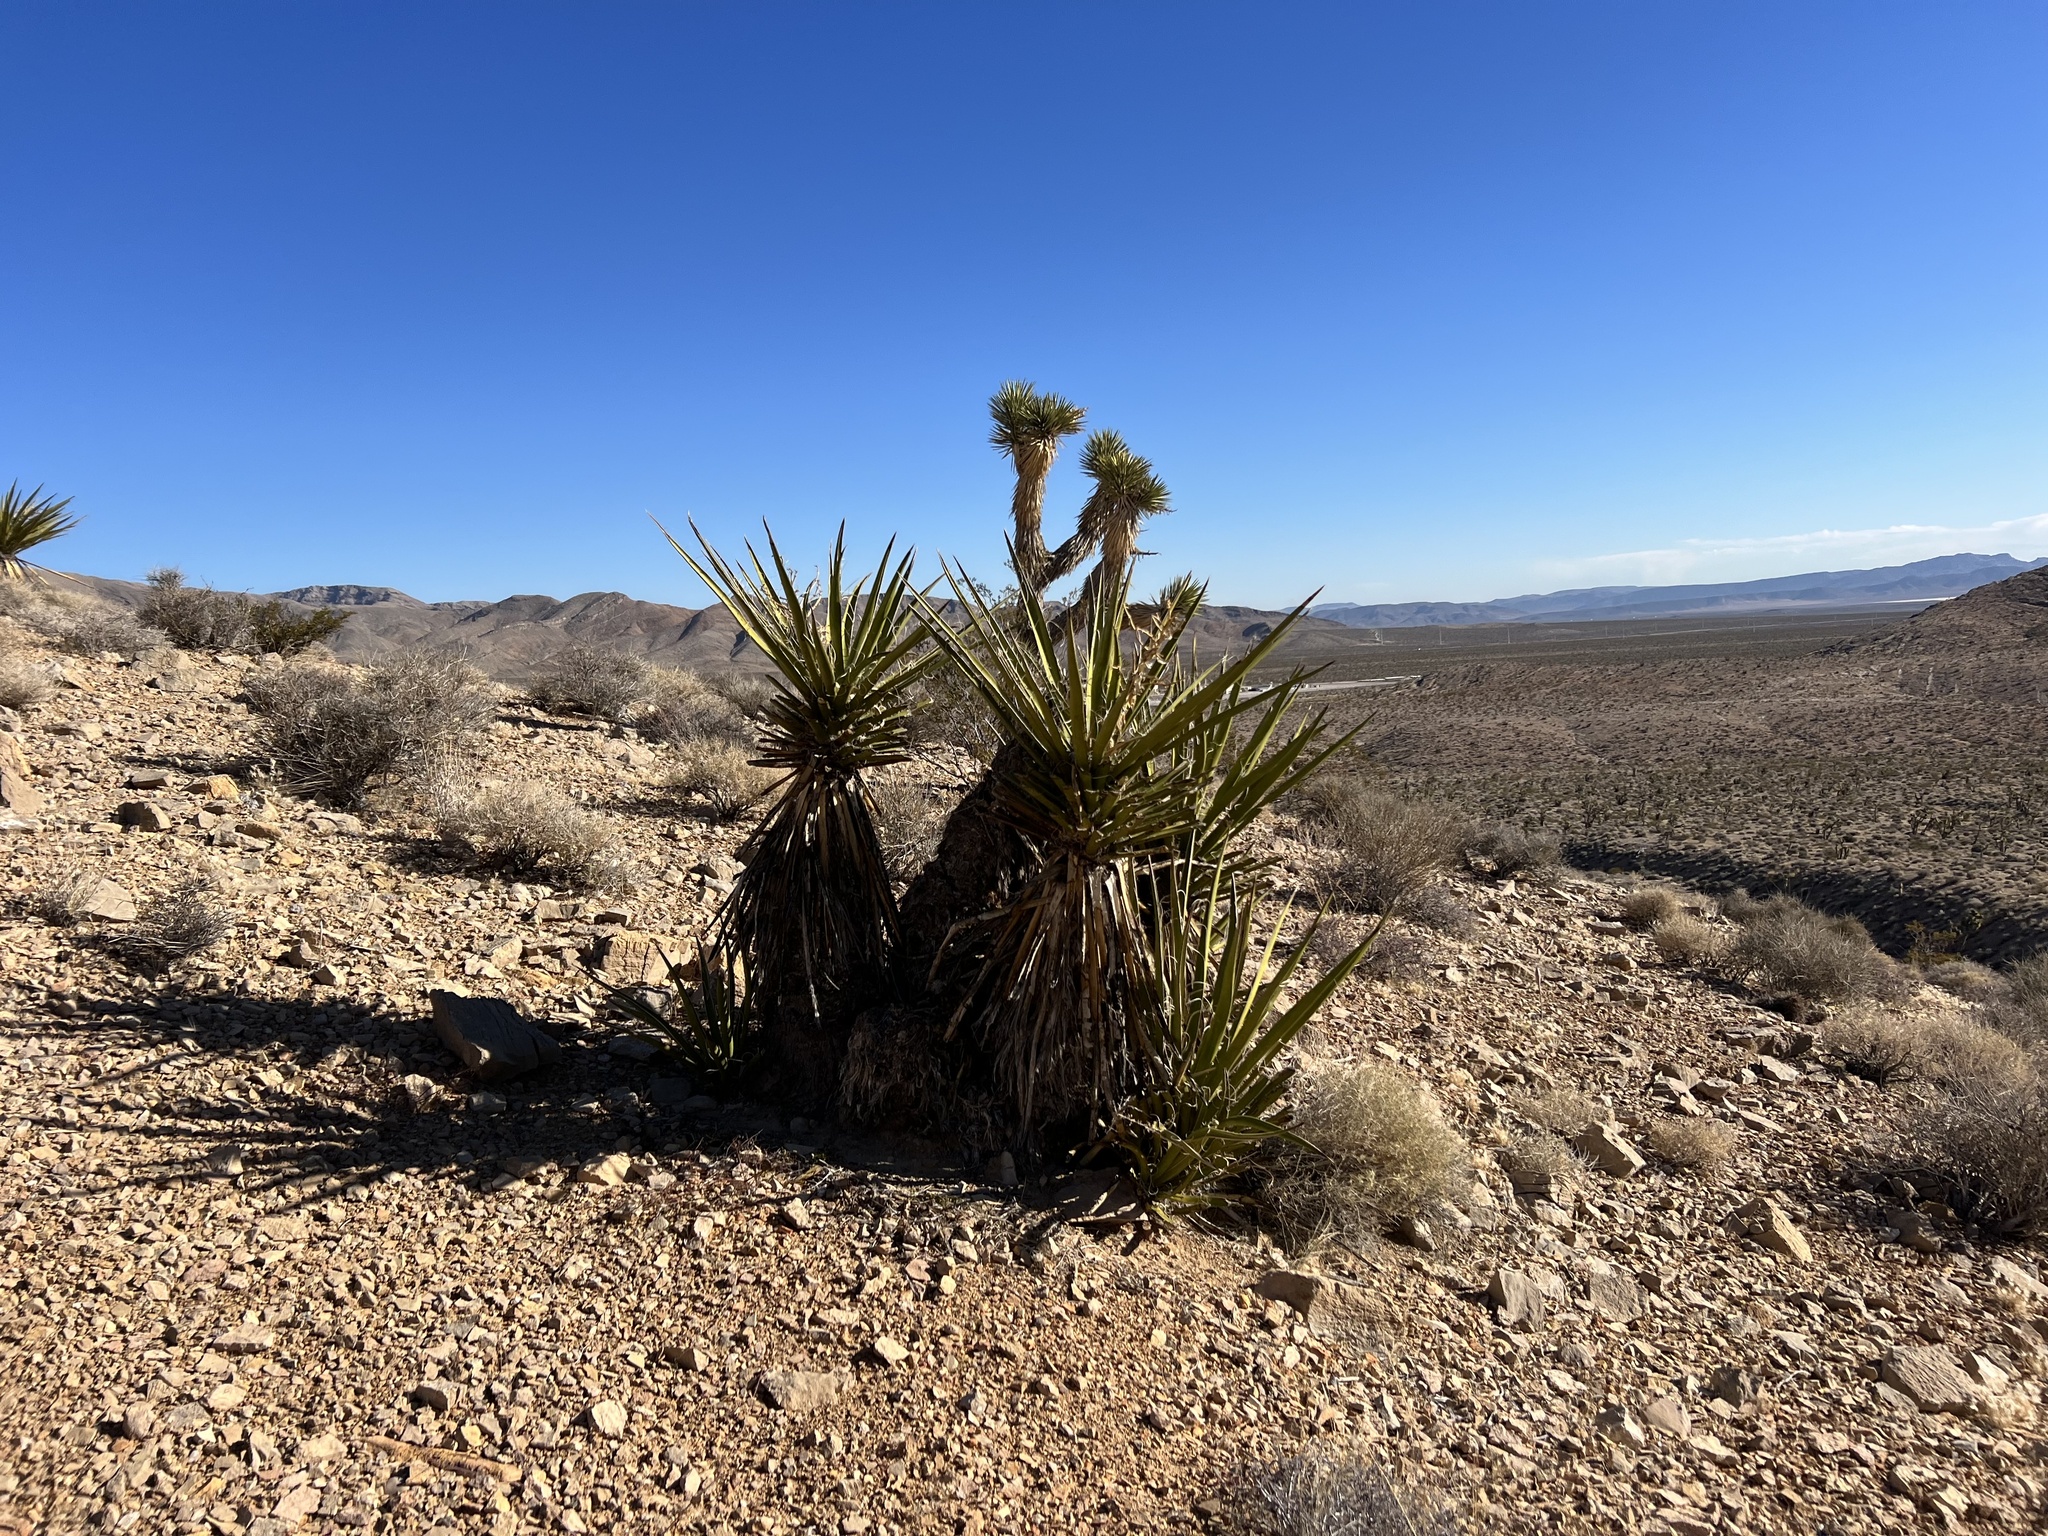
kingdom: Plantae
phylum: Tracheophyta
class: Liliopsida
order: Asparagales
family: Asparagaceae
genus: Yucca
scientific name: Yucca schidigera
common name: Mojave yucca
